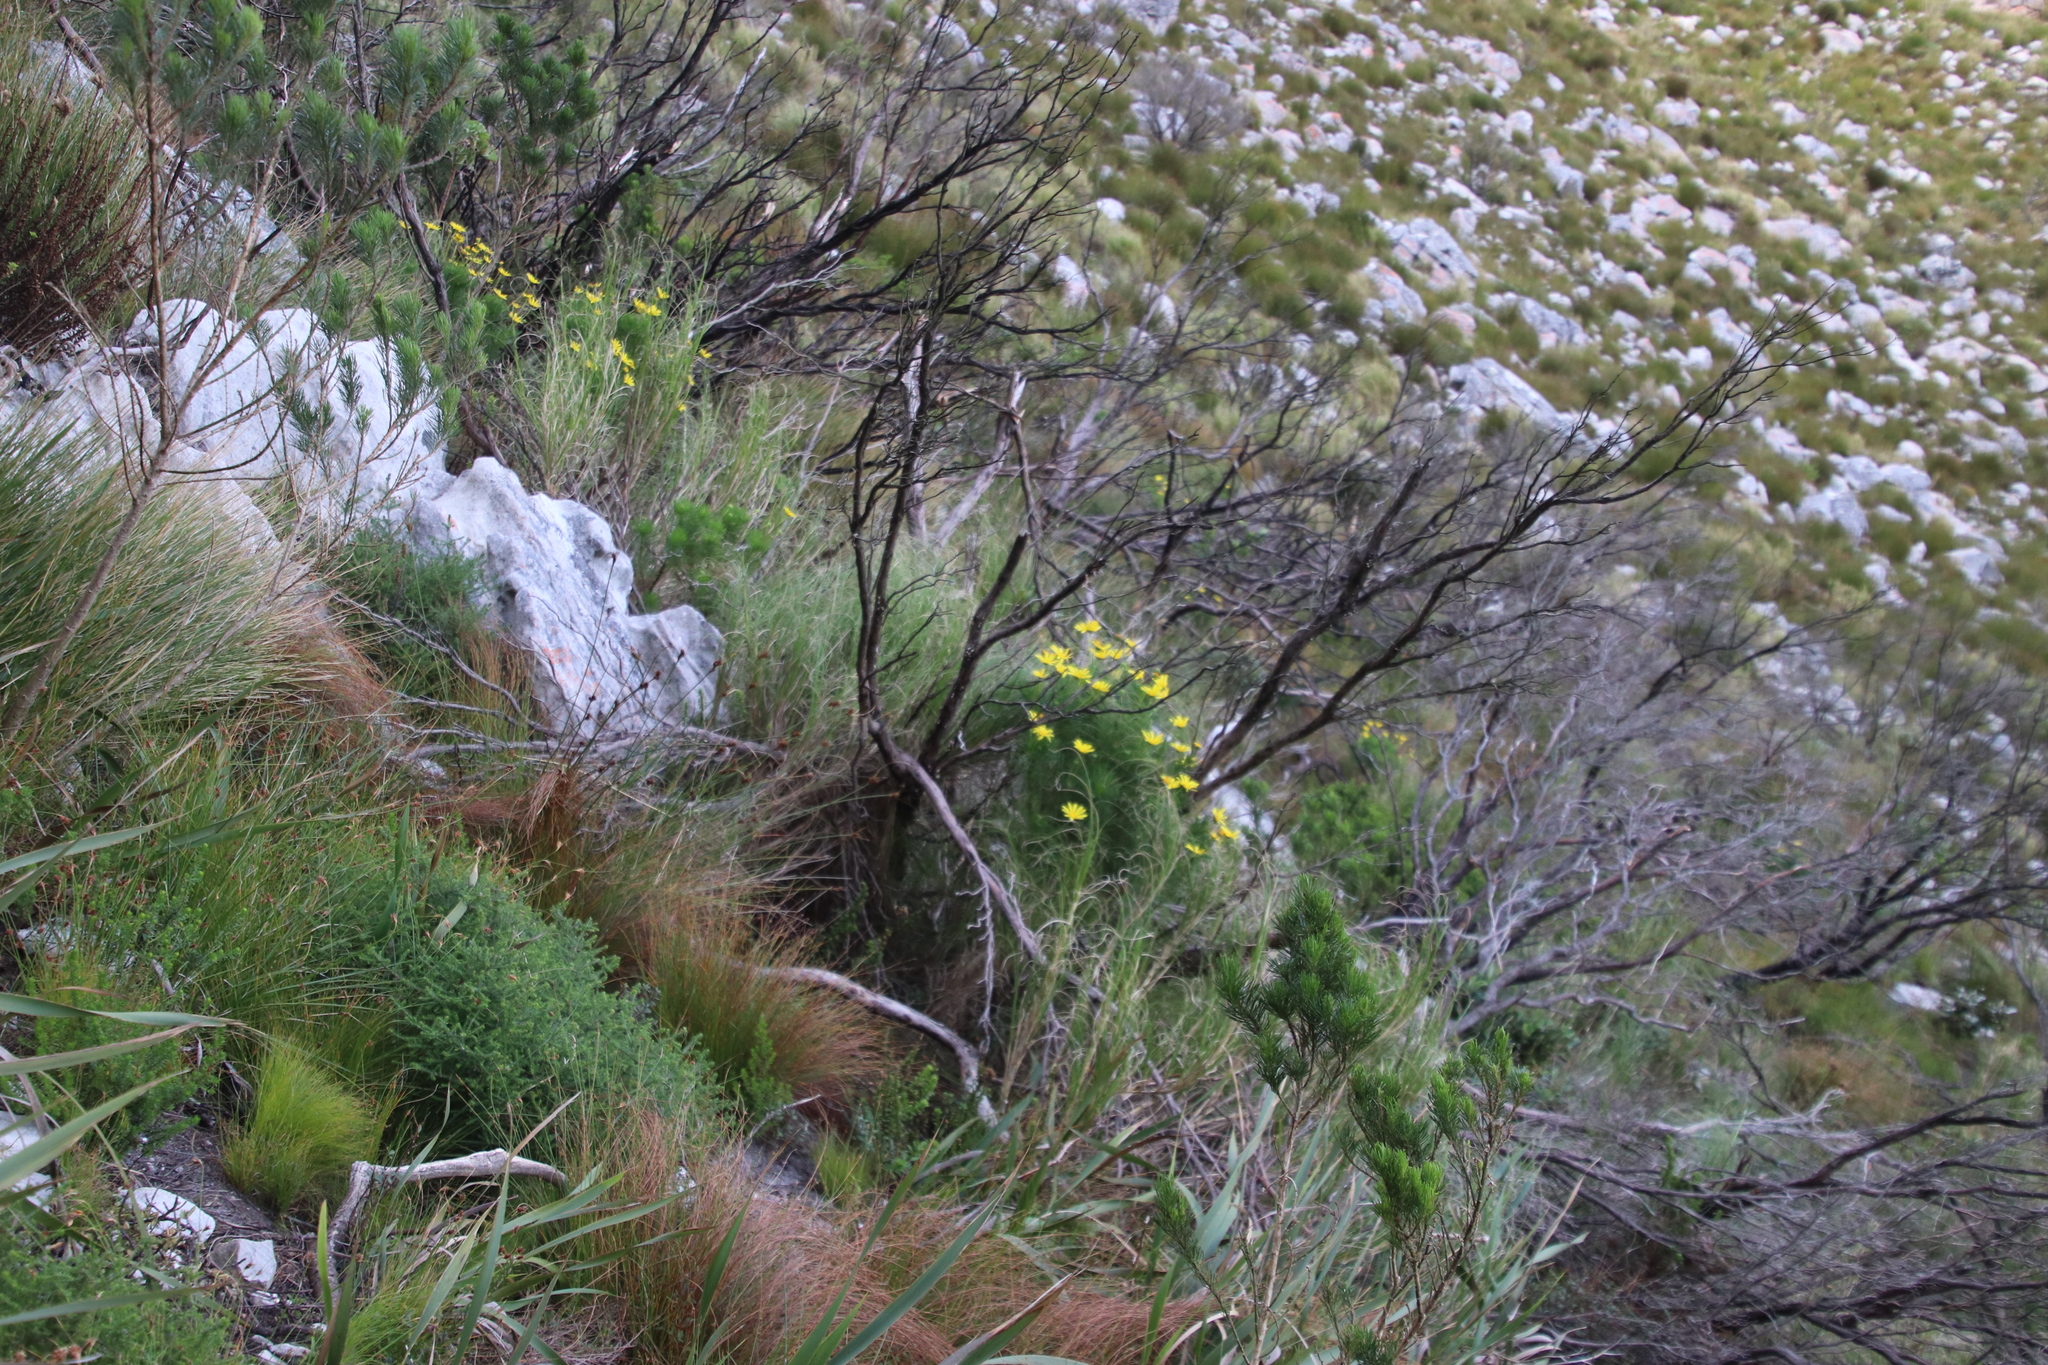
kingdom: Plantae
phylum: Tracheophyta
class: Magnoliopsida
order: Asterales
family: Asteraceae
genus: Euryops
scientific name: Euryops abrotanifolius
